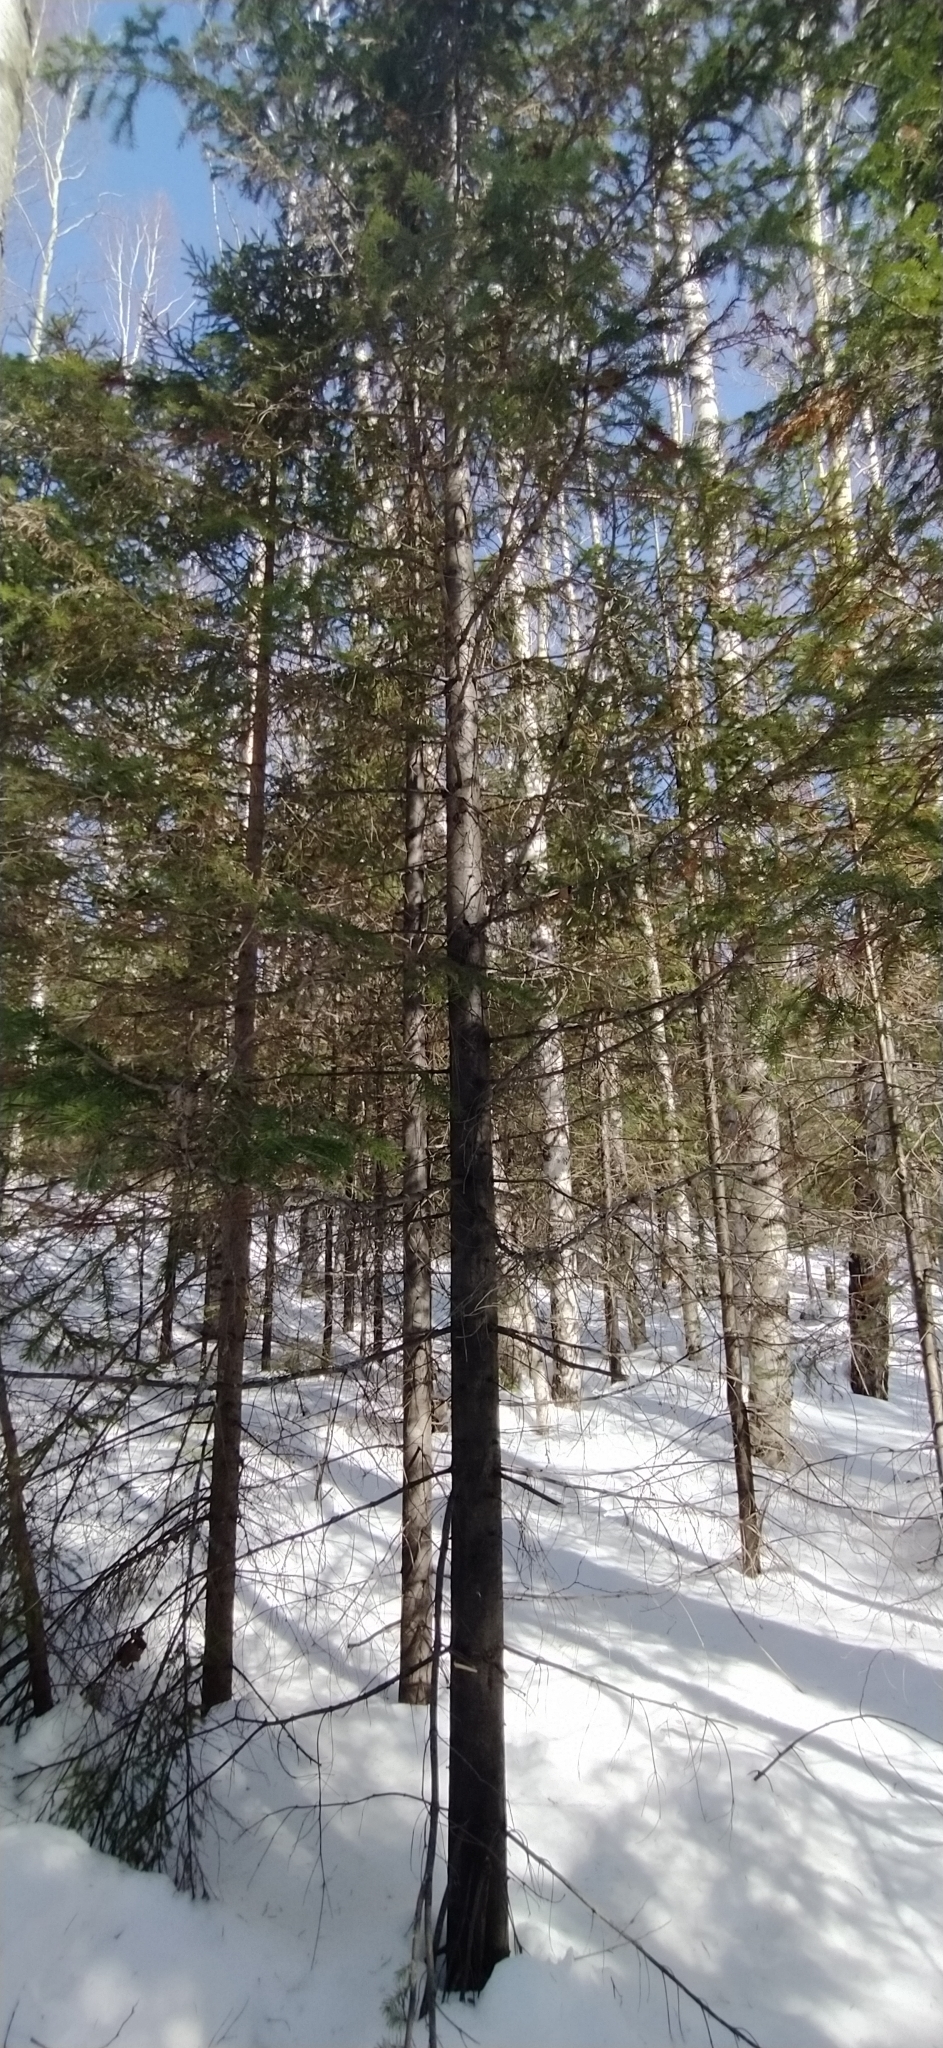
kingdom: Plantae
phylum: Tracheophyta
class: Pinopsida
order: Pinales
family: Pinaceae
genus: Abies
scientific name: Abies sibirica
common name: Siberian fir
